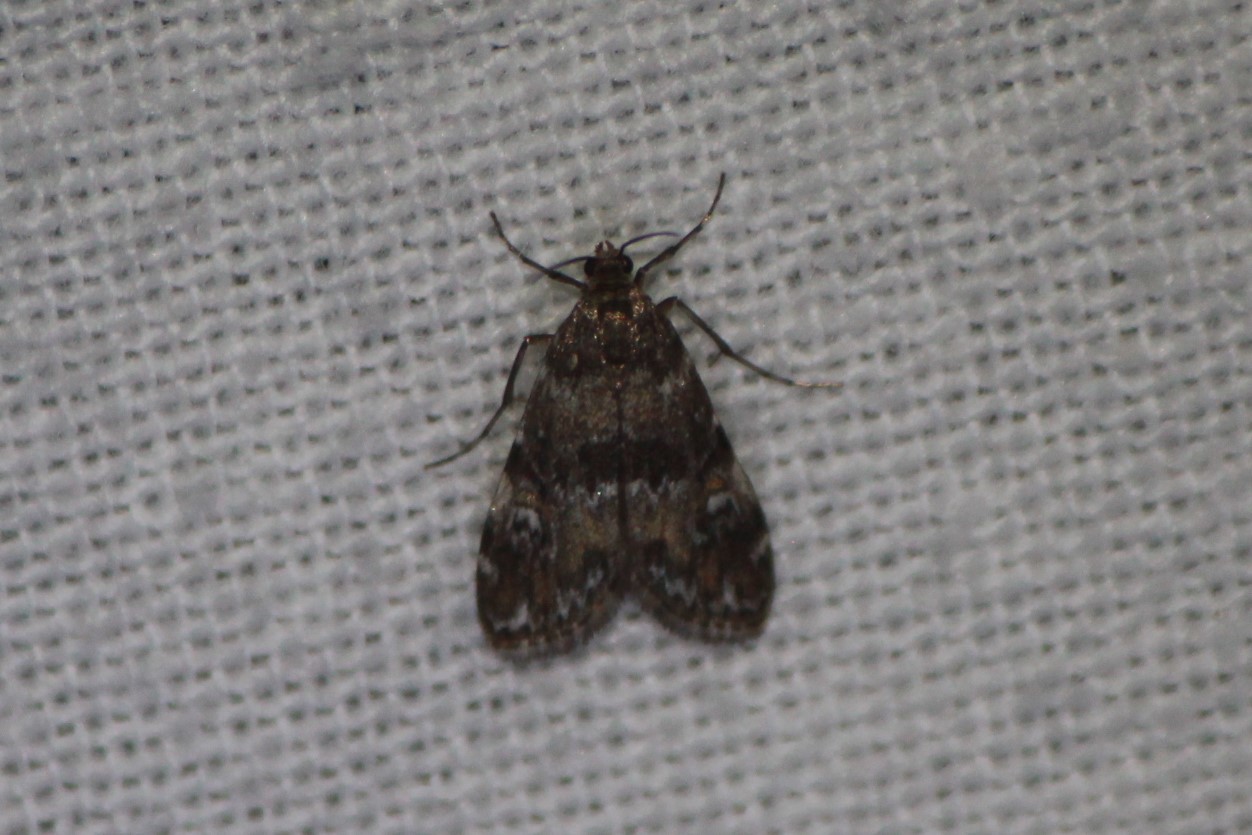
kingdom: Animalia
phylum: Arthropoda
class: Insecta
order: Lepidoptera
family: Crambidae
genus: Elophila
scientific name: Elophila obliteralis
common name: Waterlily leafcutter moth
